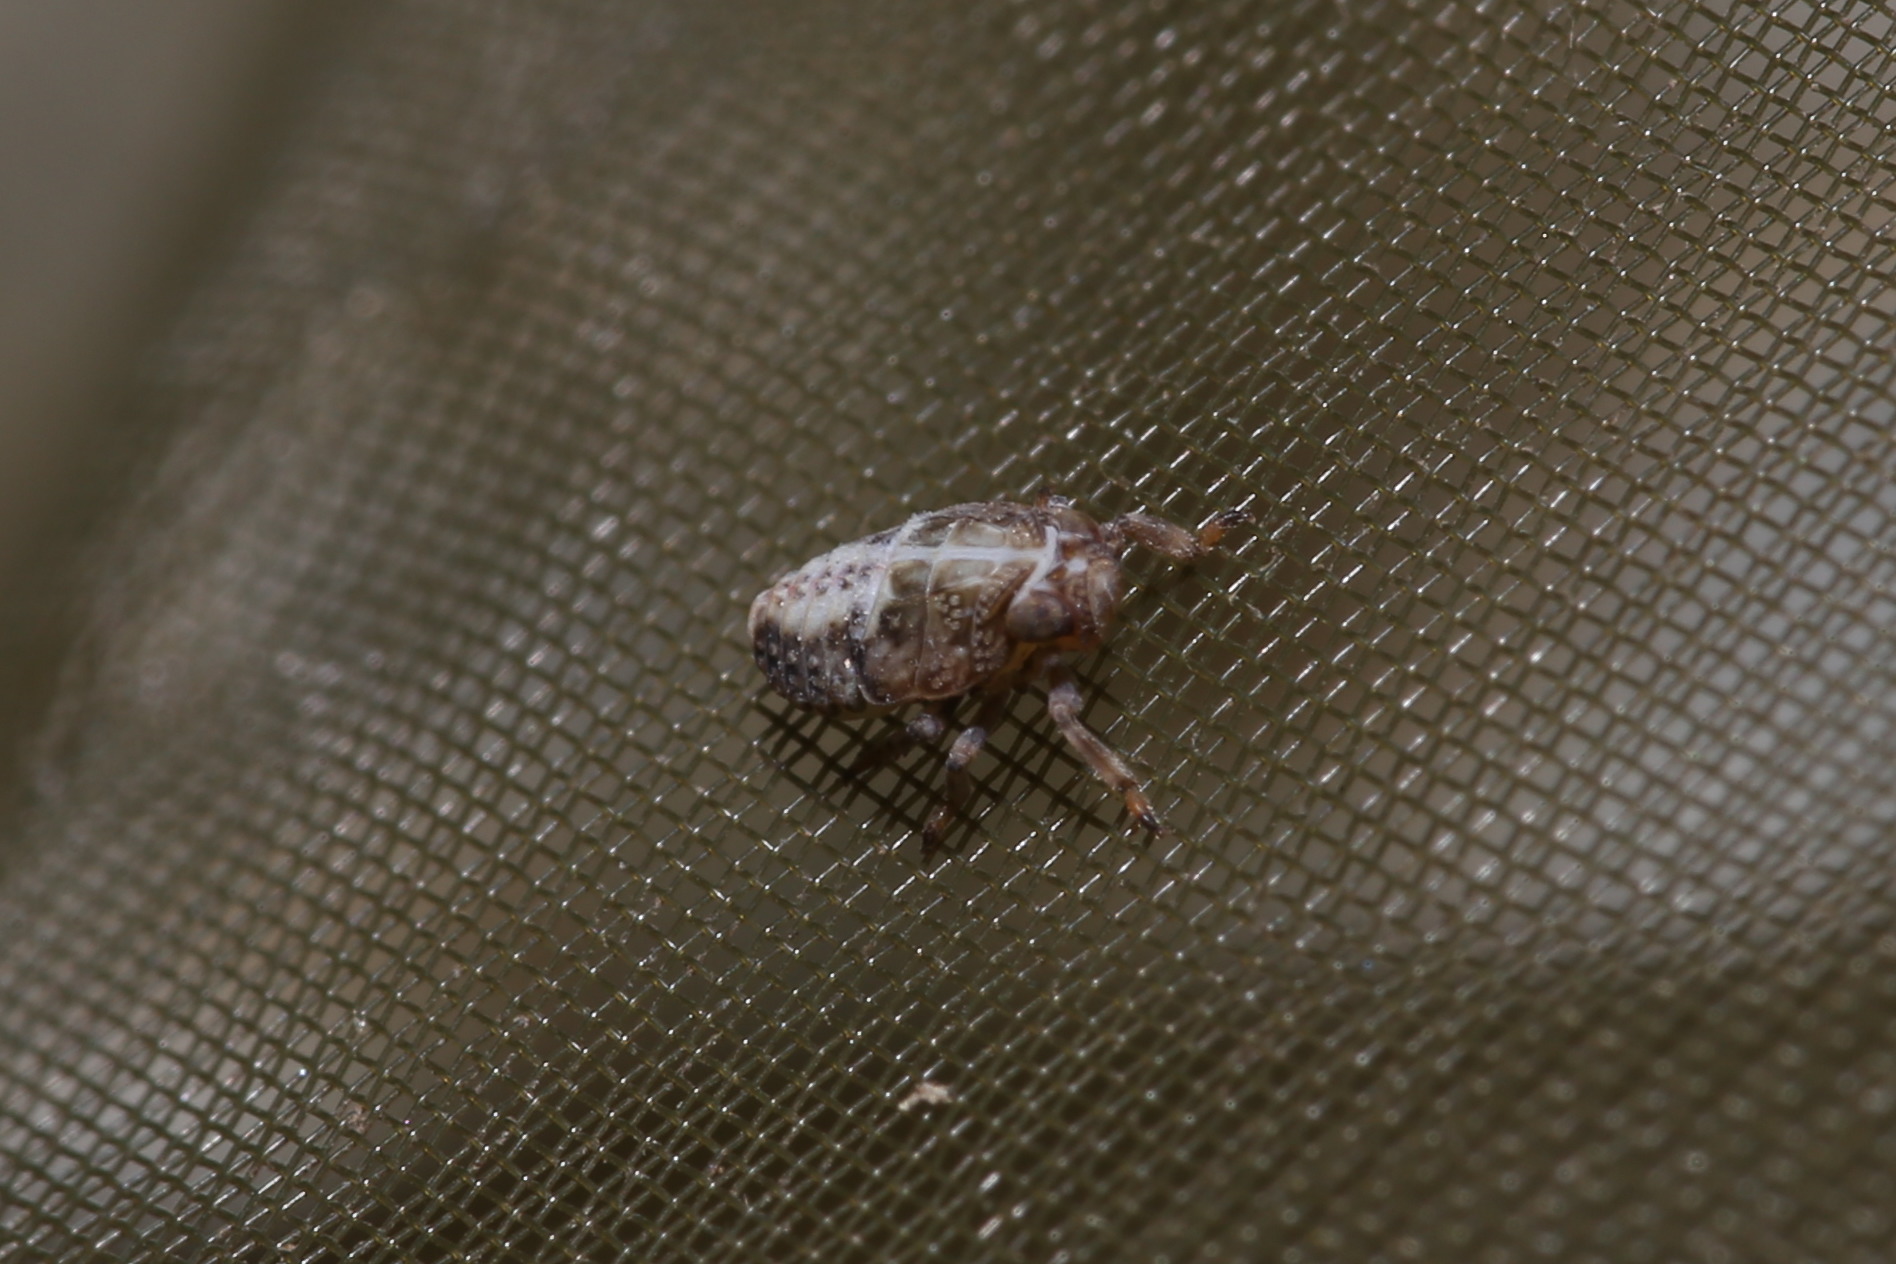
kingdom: Animalia
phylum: Arthropoda
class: Insecta
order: Hemiptera
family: Issidae
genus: Issus
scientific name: Issus coleoptratus
